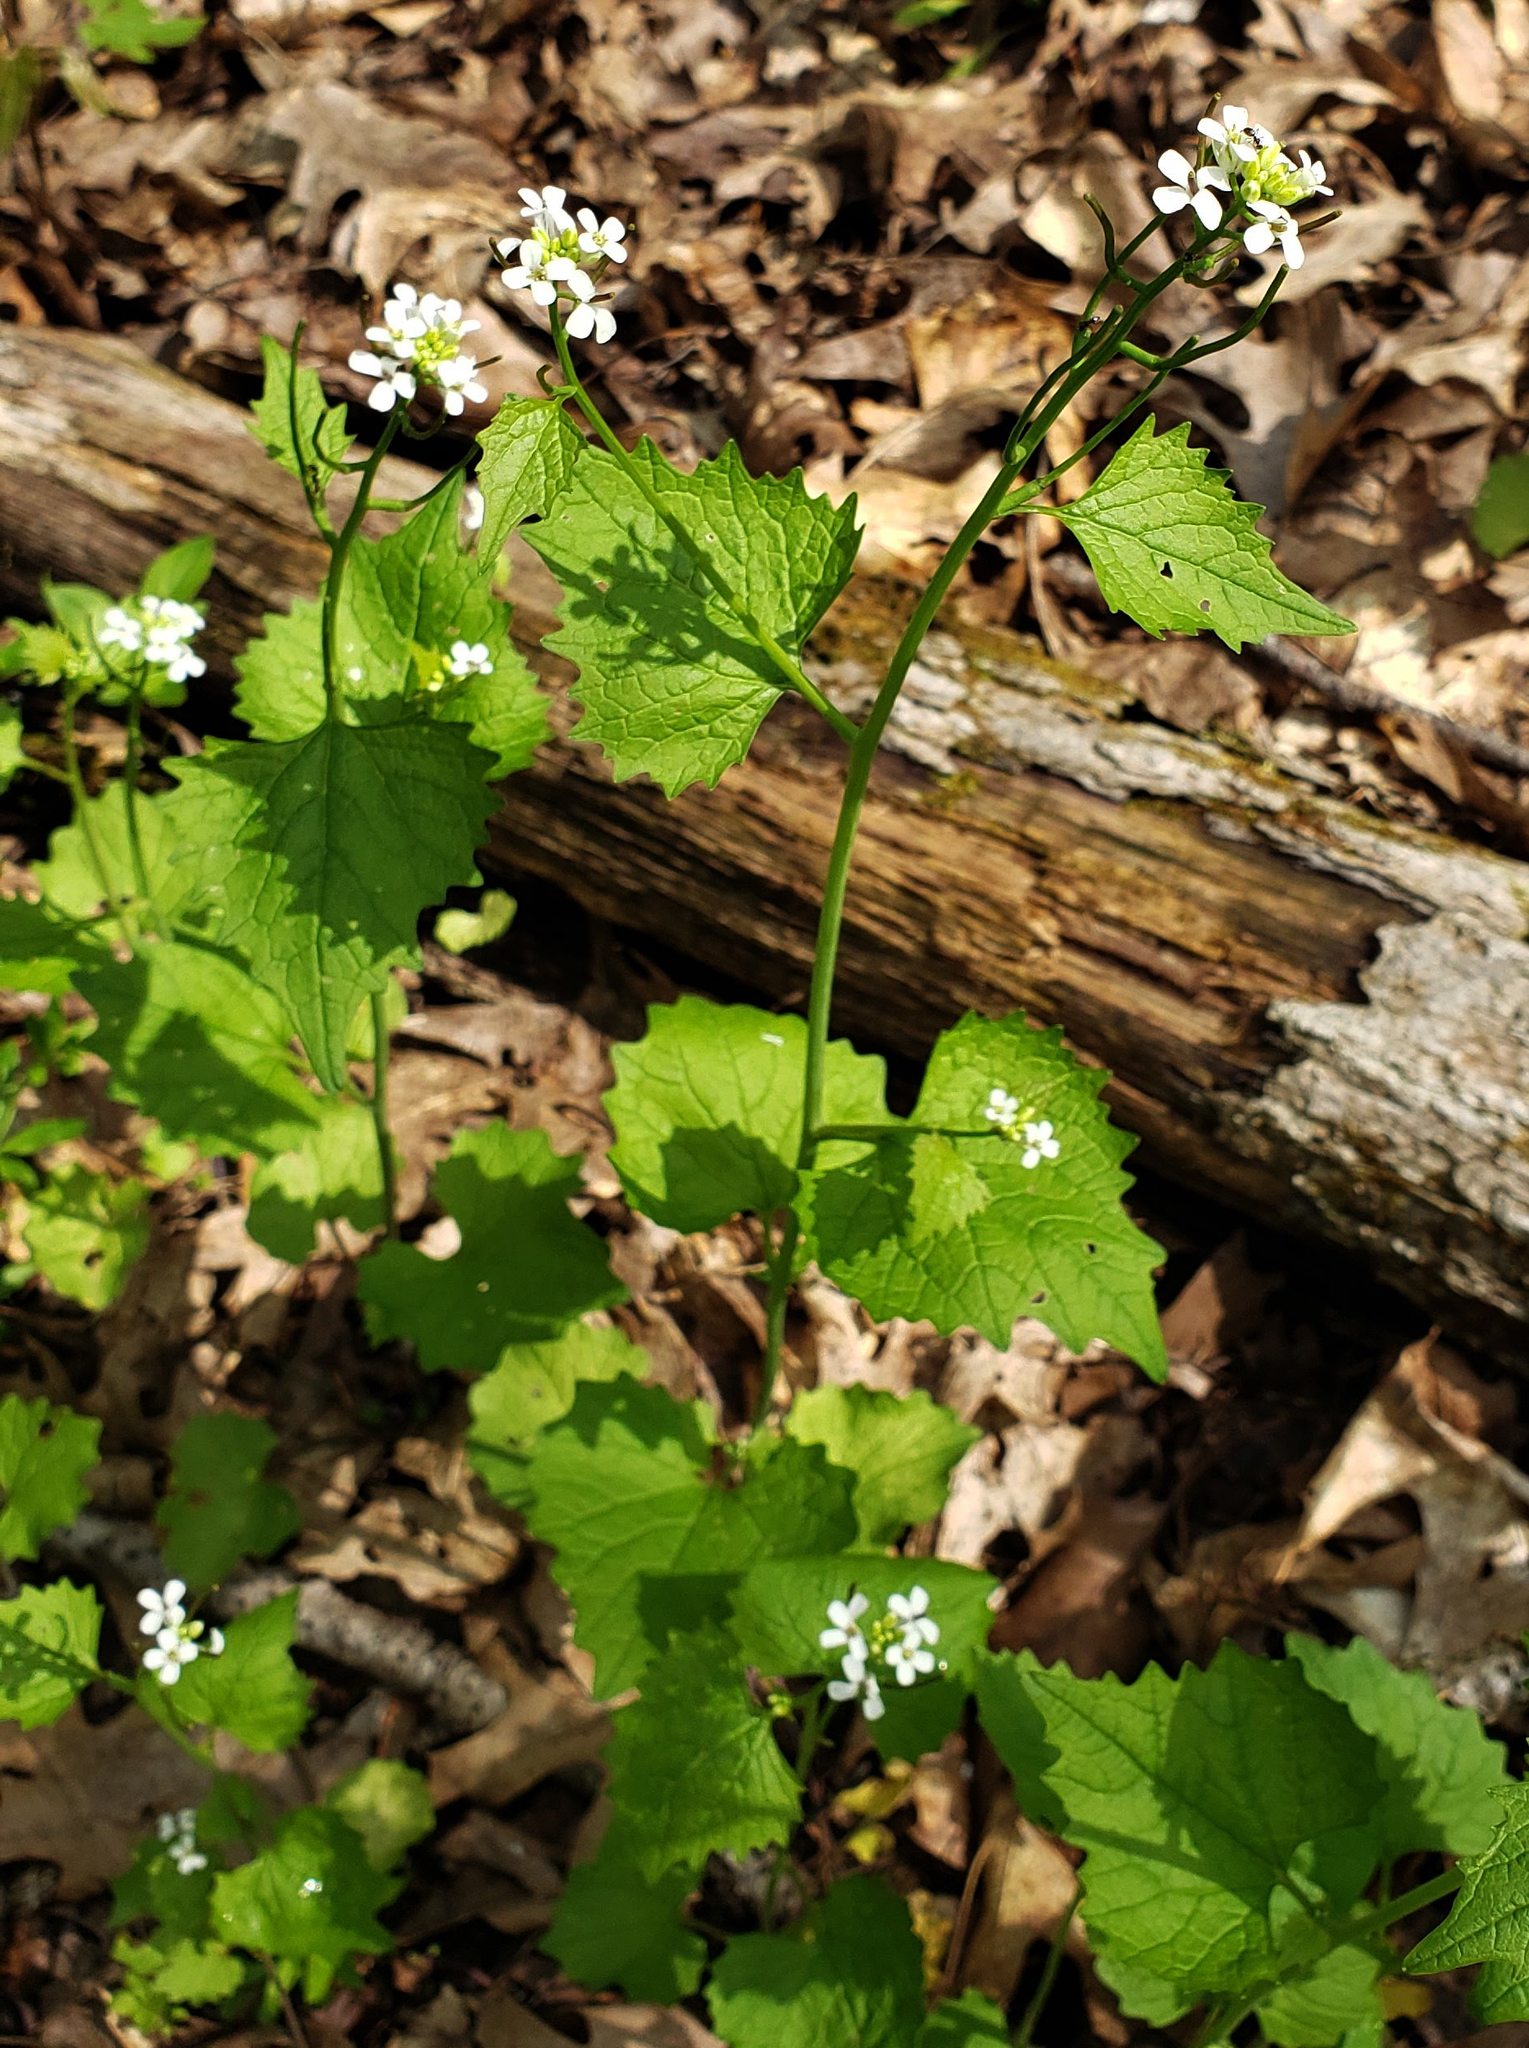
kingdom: Plantae
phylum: Tracheophyta
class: Magnoliopsida
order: Brassicales
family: Brassicaceae
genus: Alliaria
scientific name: Alliaria petiolata
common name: Garlic mustard
